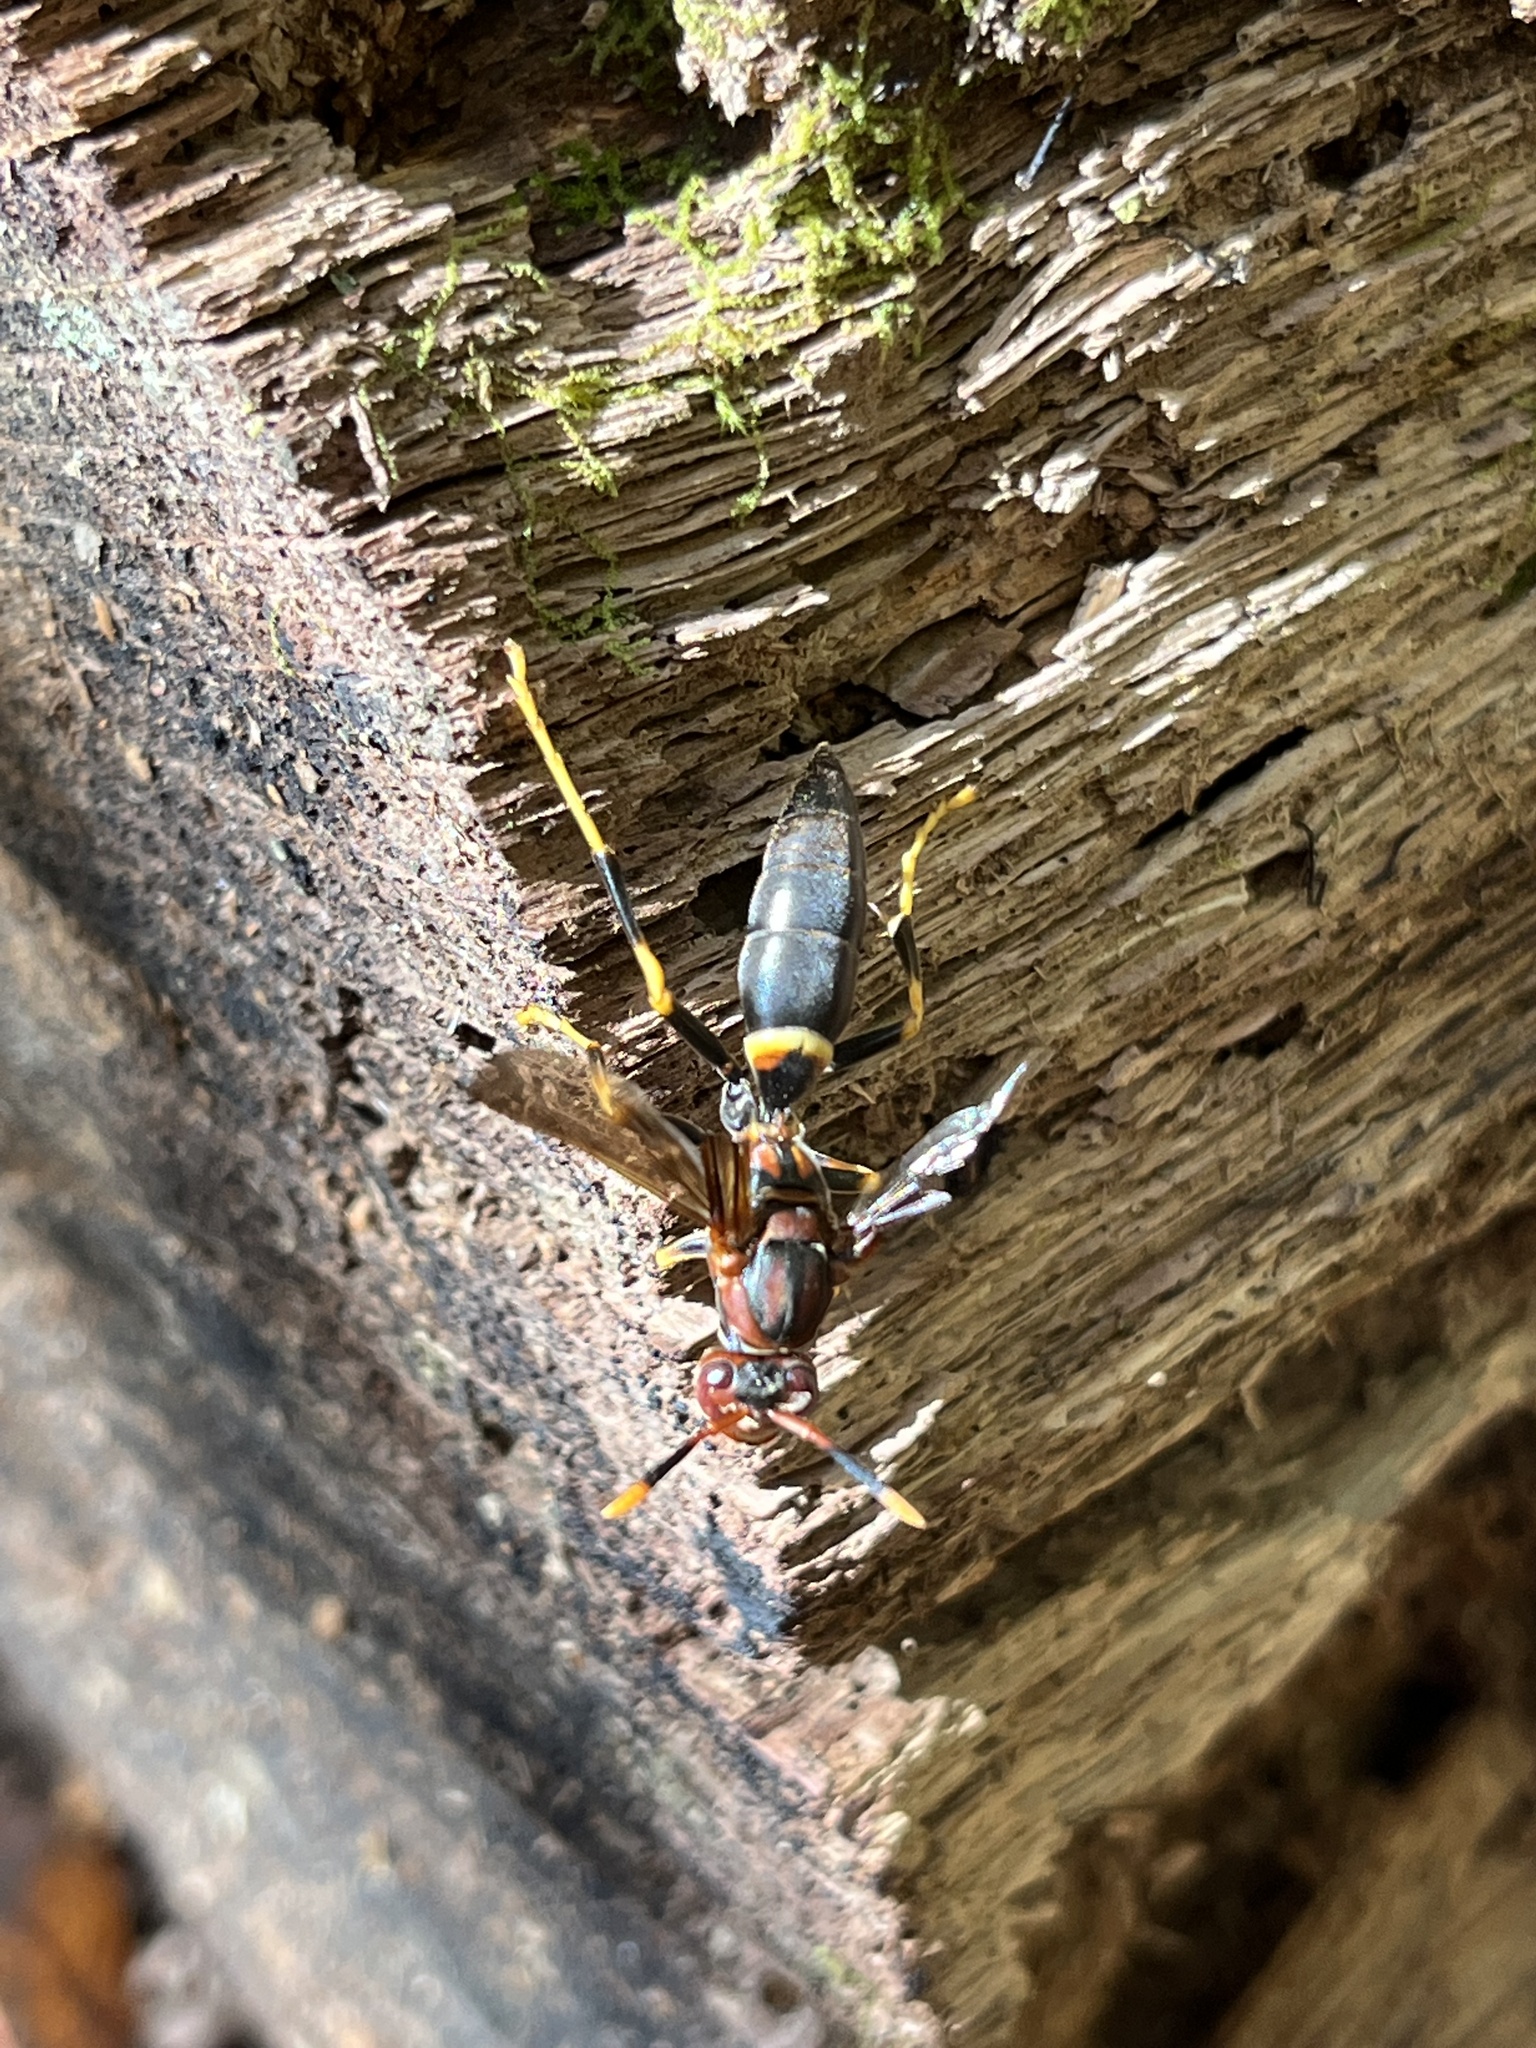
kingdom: Animalia
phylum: Arthropoda
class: Insecta
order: Hymenoptera
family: Eumenidae
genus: Polistes
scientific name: Polistes annularis
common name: Ringed paper wasp
